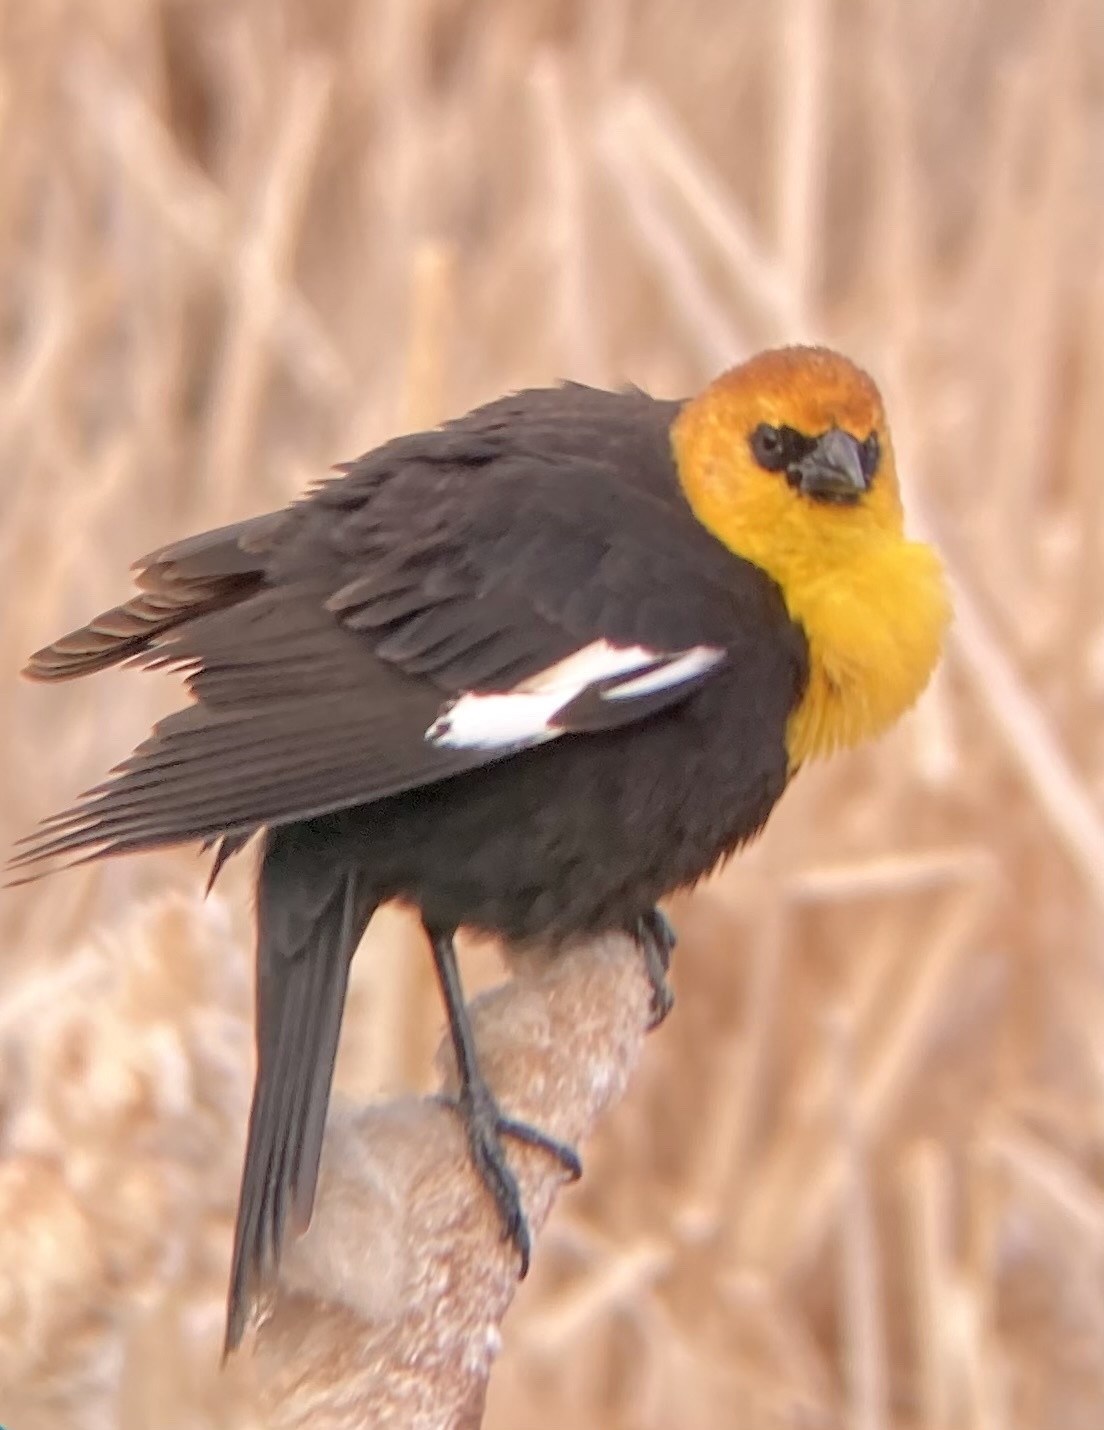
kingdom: Animalia
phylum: Chordata
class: Aves
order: Passeriformes
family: Icteridae
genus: Xanthocephalus
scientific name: Xanthocephalus xanthocephalus
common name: Yellow-headed blackbird
